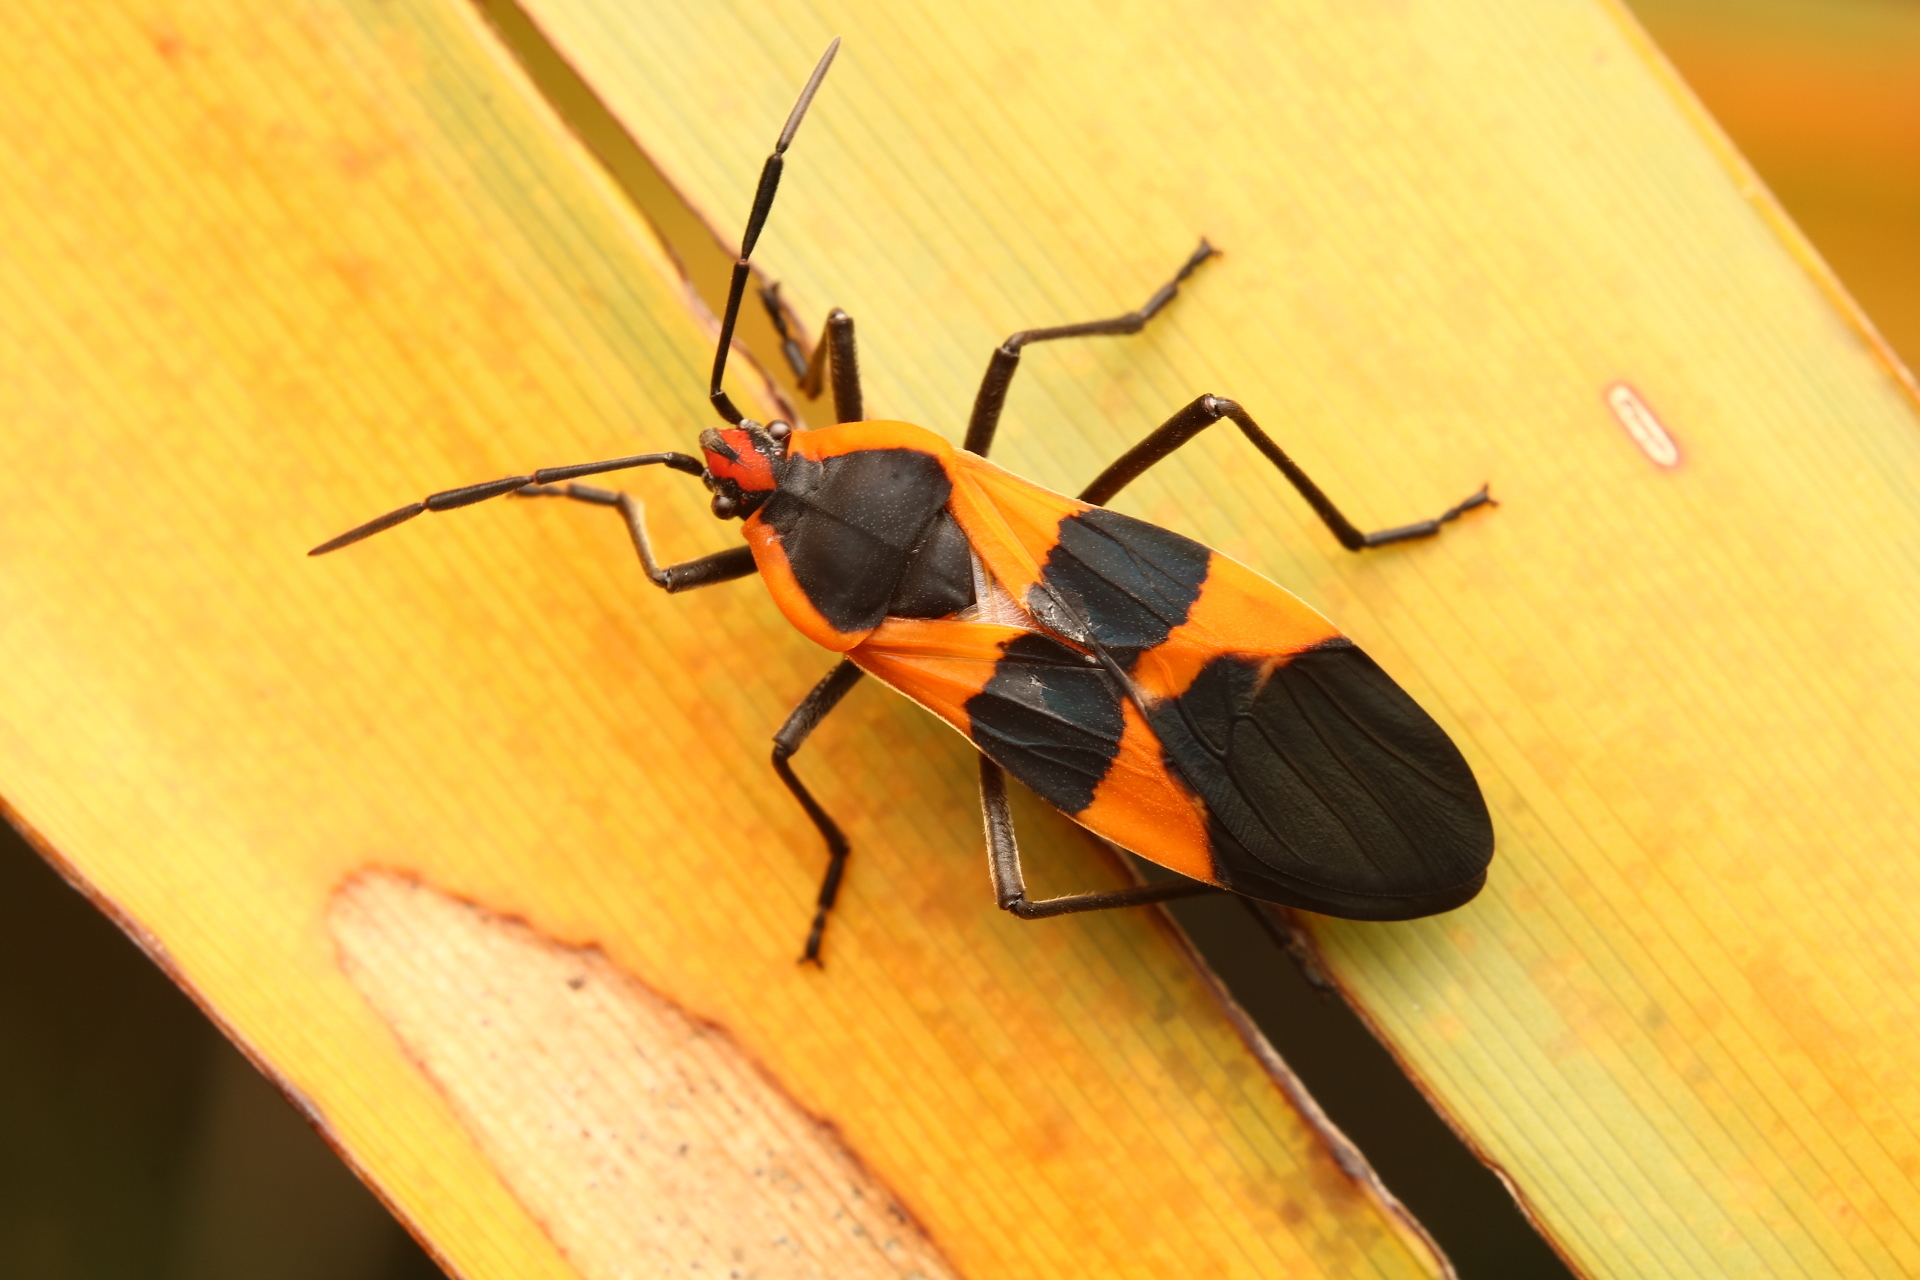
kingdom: Animalia
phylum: Arthropoda
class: Insecta
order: Hemiptera
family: Lygaeidae
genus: Oncopeltus
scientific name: Oncopeltus fasciatus
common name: Large milkweed bug
